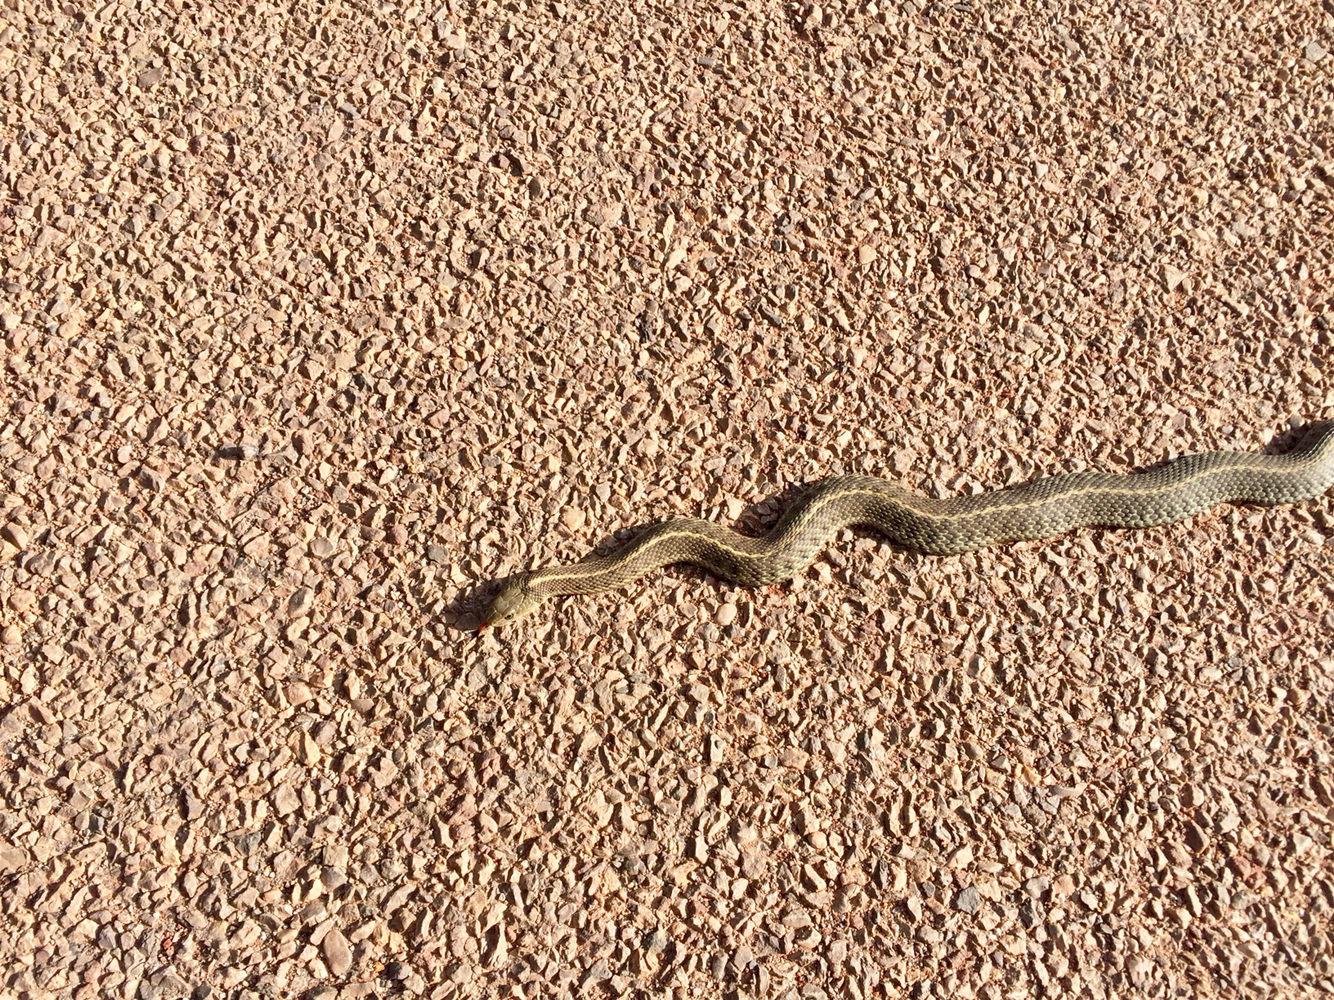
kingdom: Animalia
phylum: Chordata
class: Squamata
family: Colubridae
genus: Thamnophis
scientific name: Thamnophis elegans
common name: Western terrestrial garter snake
